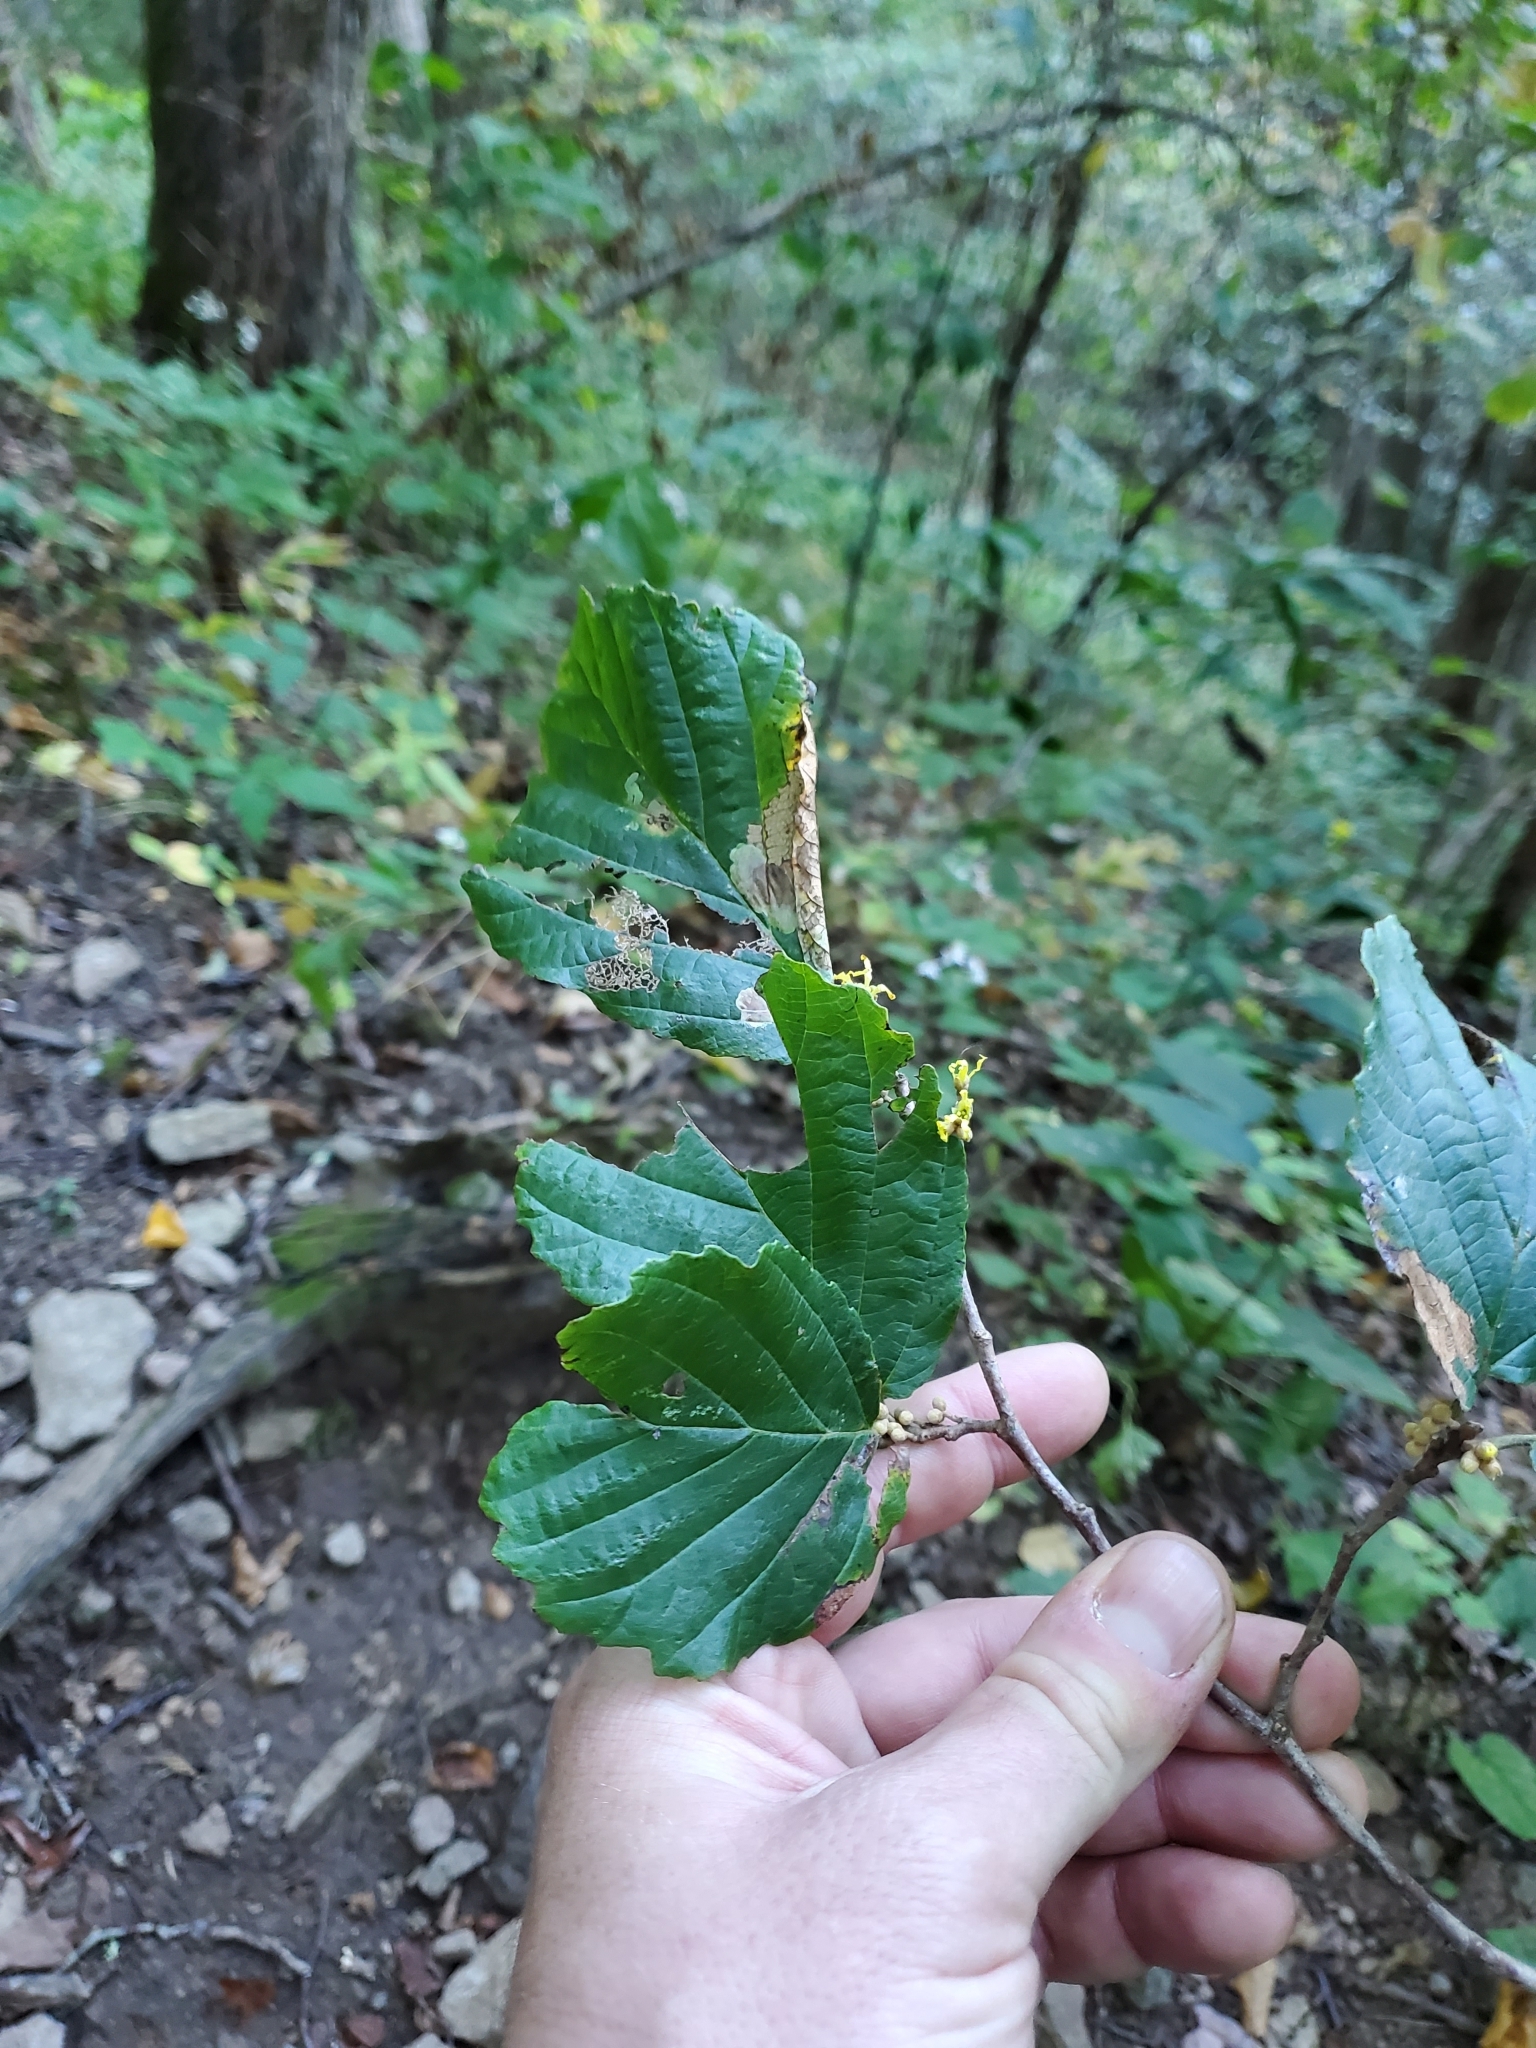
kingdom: Animalia
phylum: Arthropoda
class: Insecta
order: Hemiptera
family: Aphididae
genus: Hormaphis
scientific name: Hormaphis hamamelidis
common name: Witch-hazel cone gall aphid
